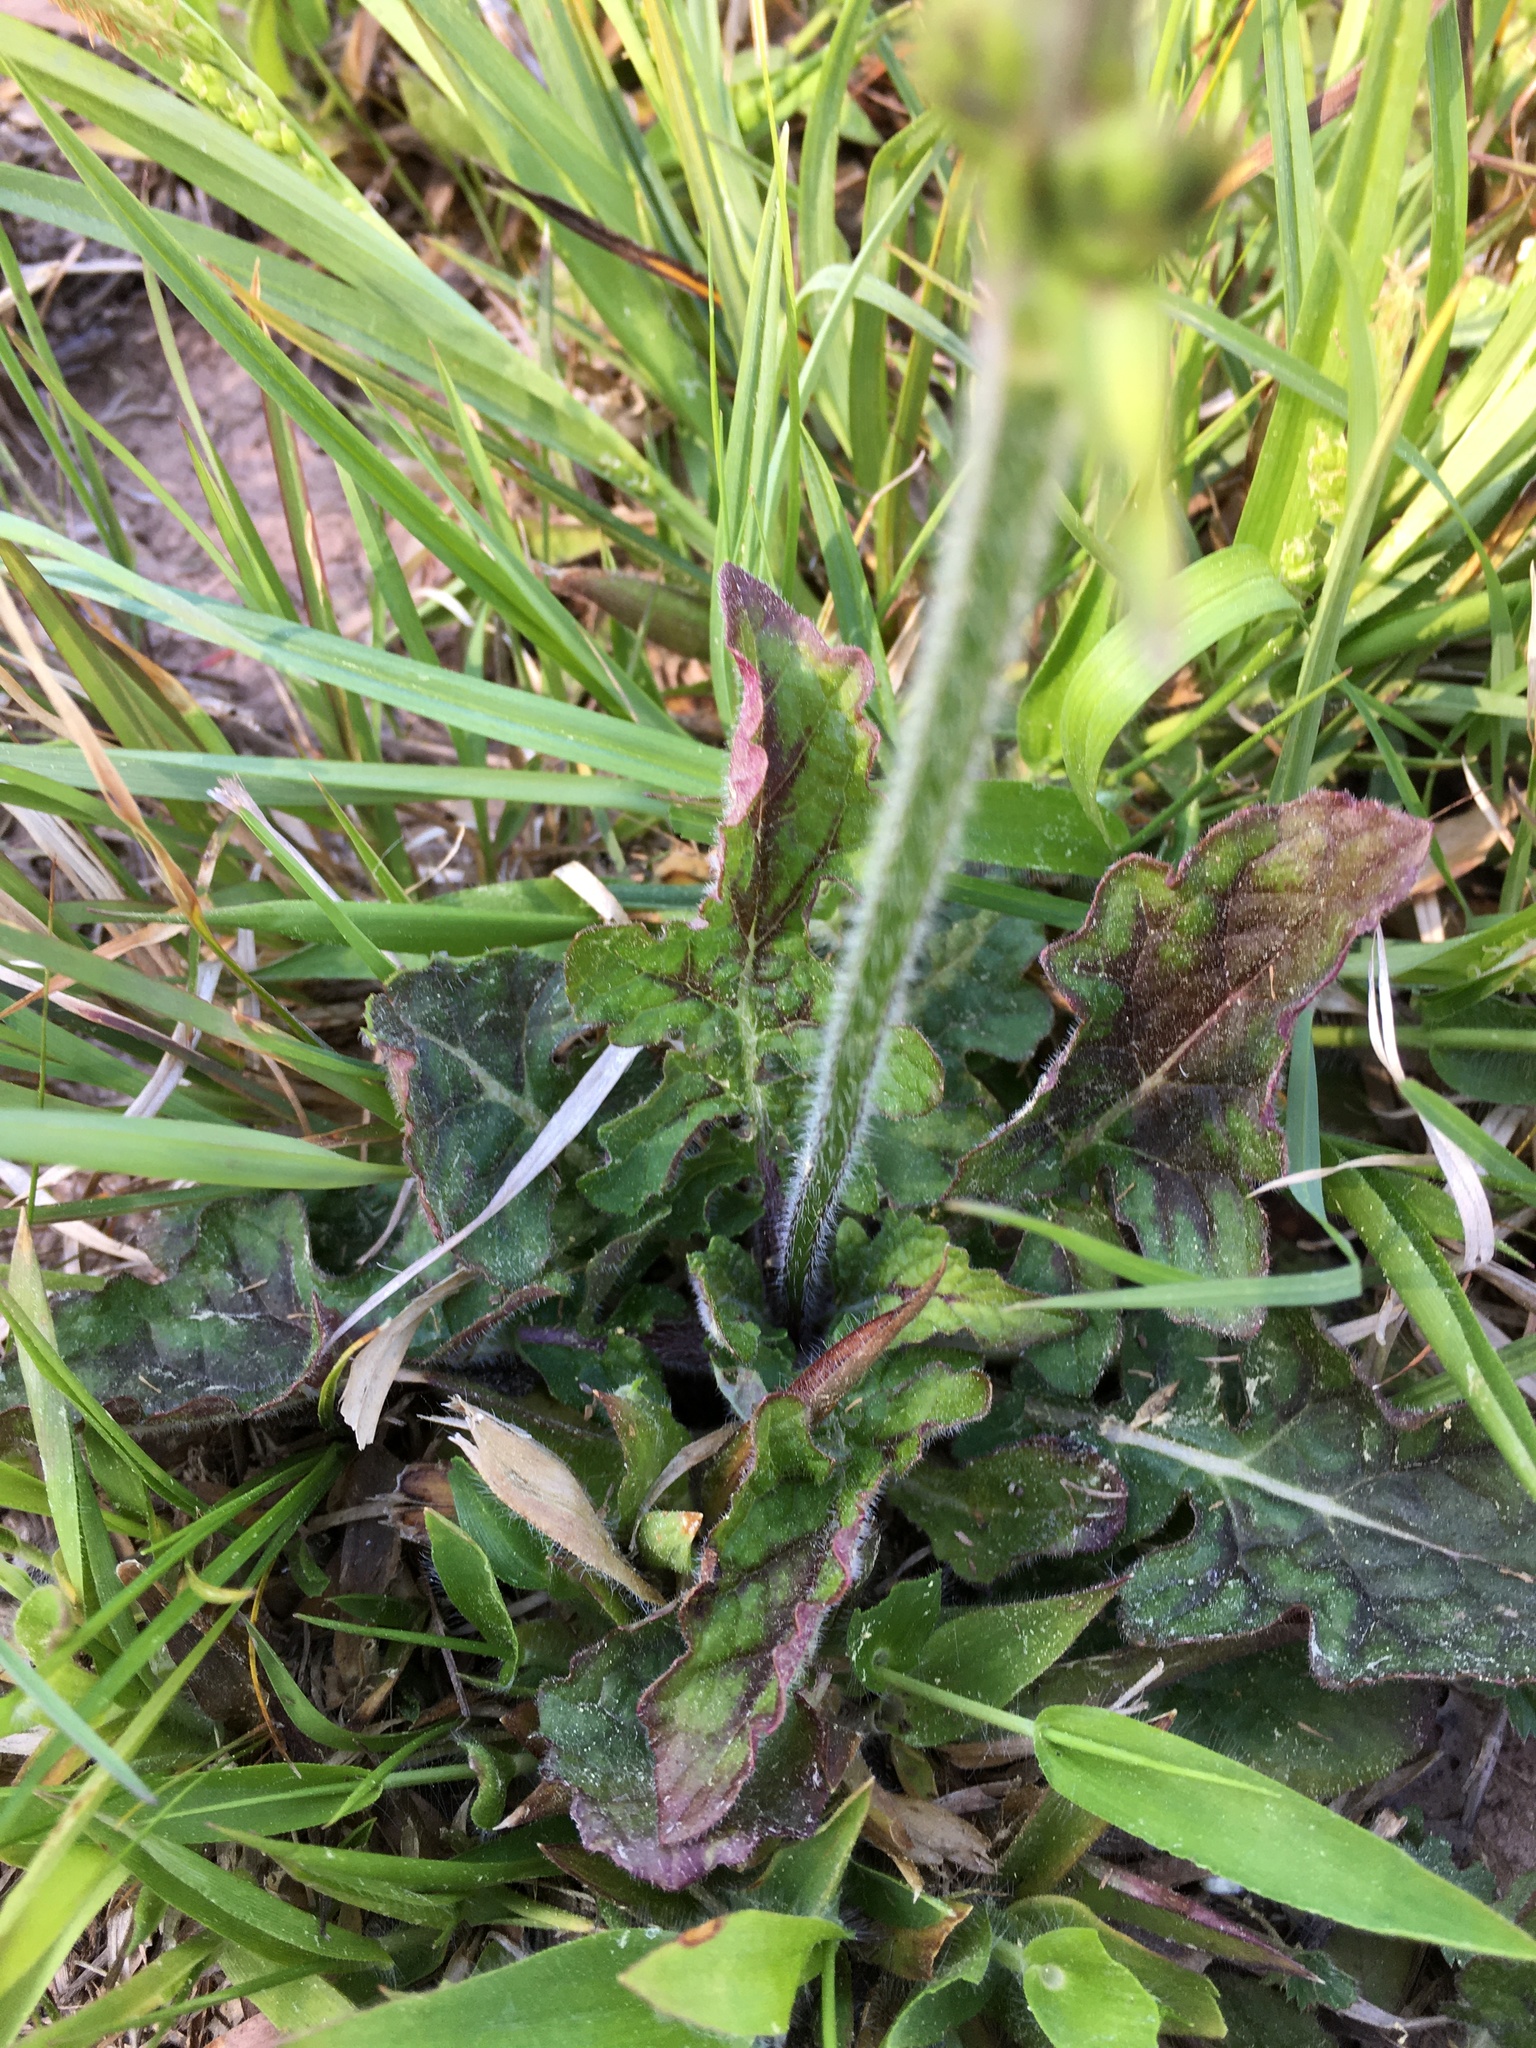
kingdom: Plantae
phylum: Tracheophyta
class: Magnoliopsida
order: Lamiales
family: Lamiaceae
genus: Salvia
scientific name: Salvia lyrata
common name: Cancerweed
